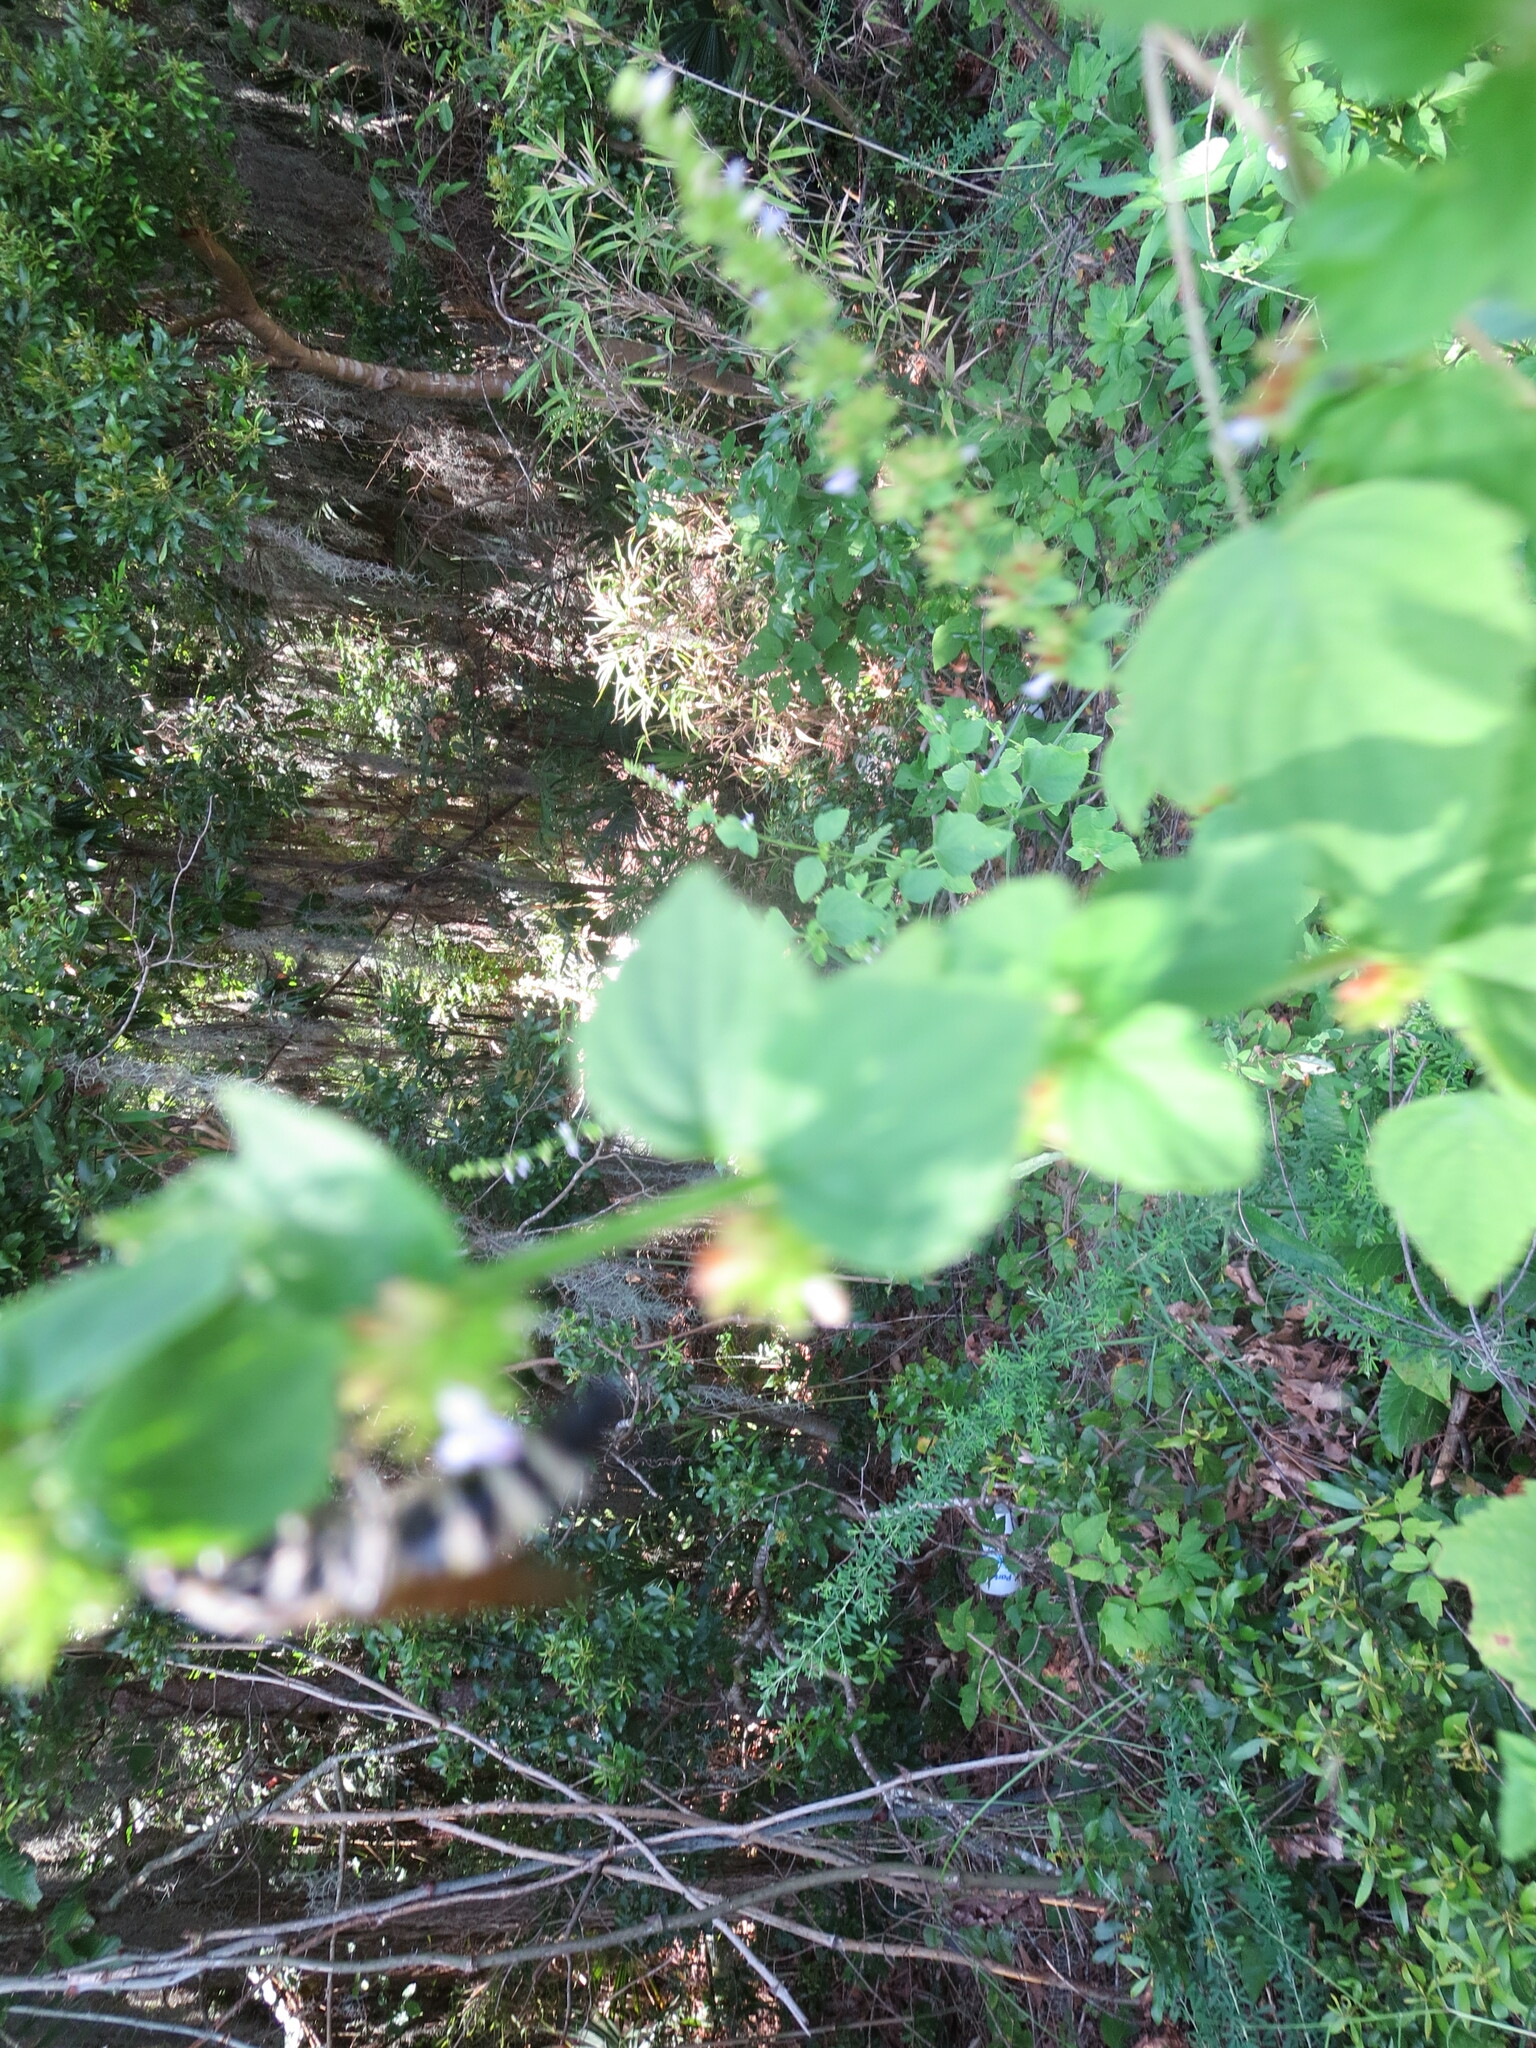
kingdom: Animalia
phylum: Arthropoda
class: Insecta
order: Hymenoptera
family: Scoliidae
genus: Dielis
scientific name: Dielis
